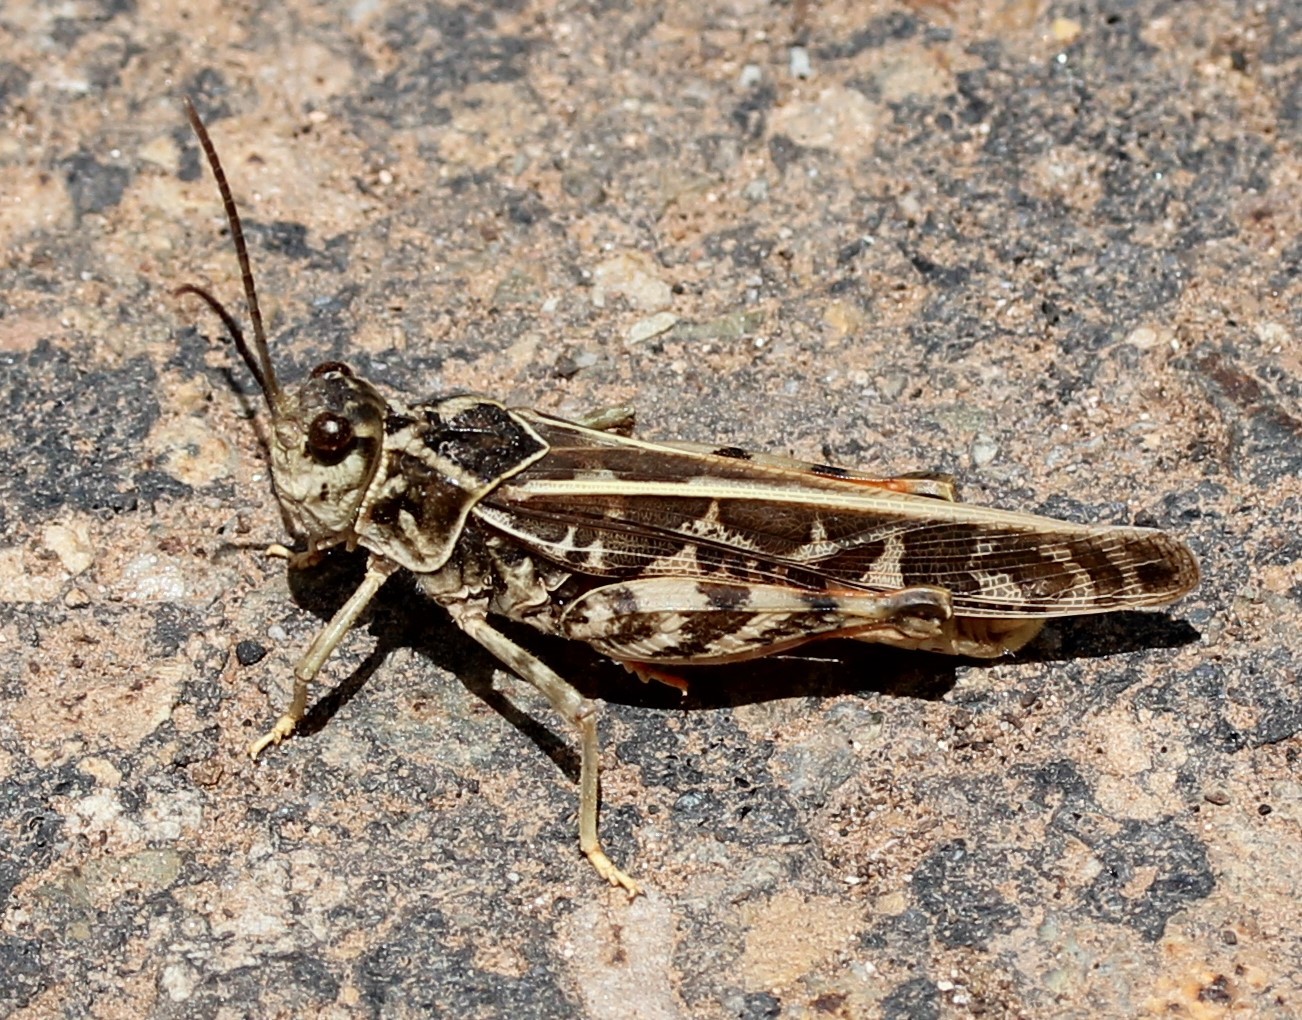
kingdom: Animalia
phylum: Arthropoda
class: Insecta
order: Orthoptera
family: Acrididae
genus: Xanthippus
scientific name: Xanthippus corallipes
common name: Redshanked grasshopper
